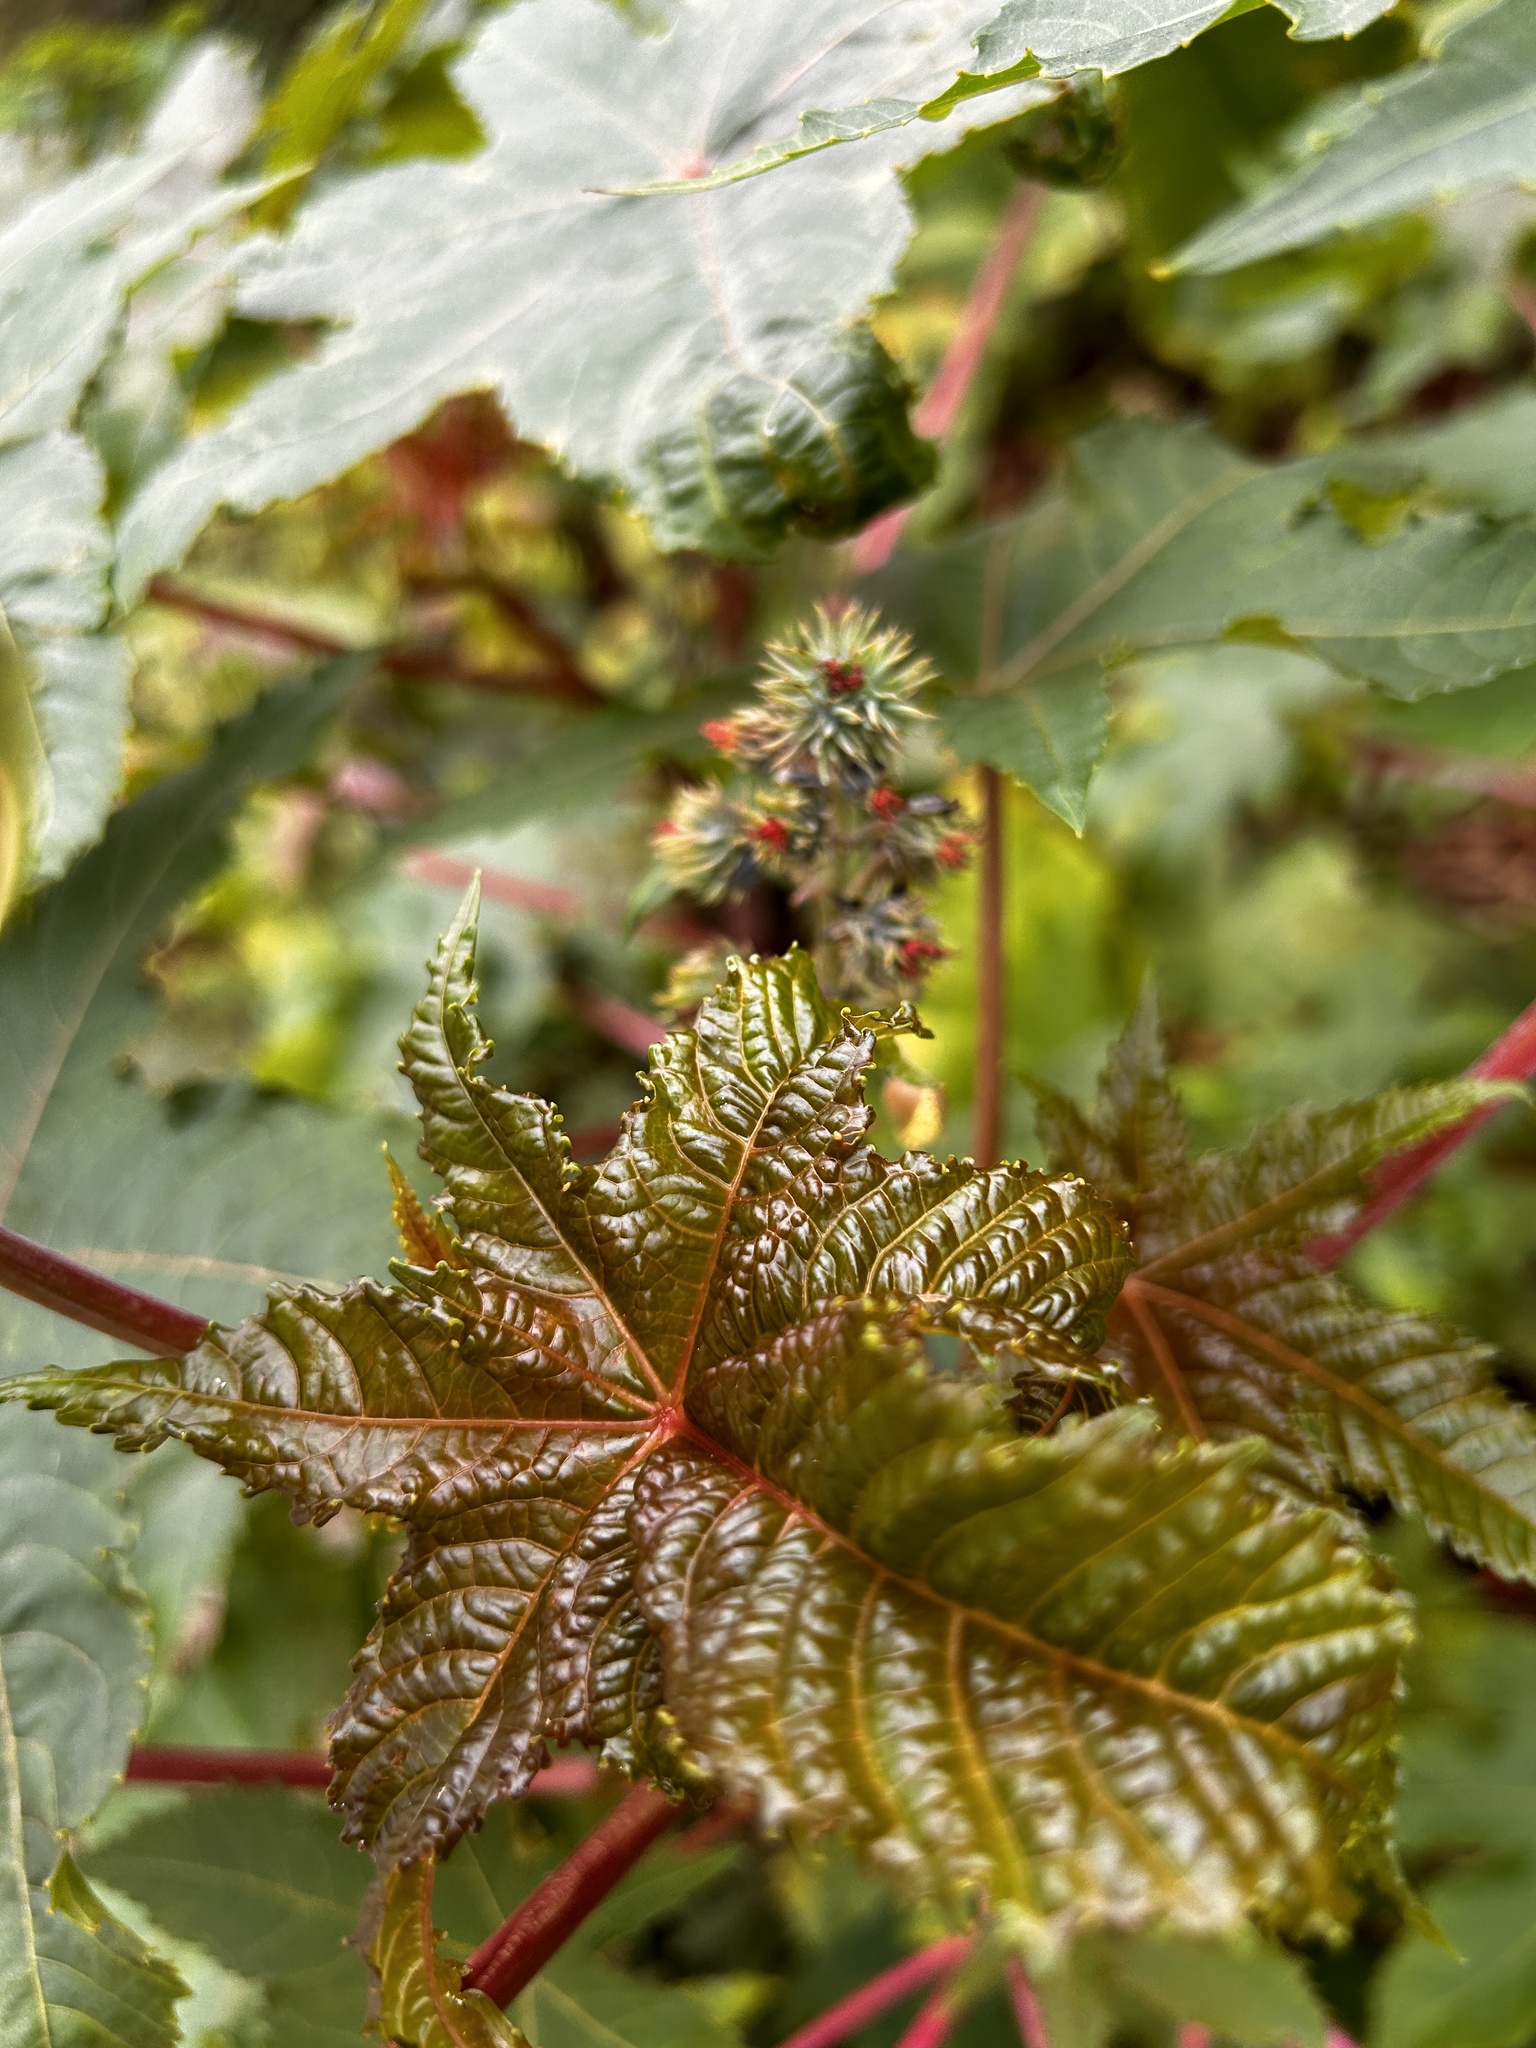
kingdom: Plantae
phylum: Tracheophyta
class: Magnoliopsida
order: Malpighiales
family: Euphorbiaceae
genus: Ricinus
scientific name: Ricinus communis
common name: Castor-oil-plant
